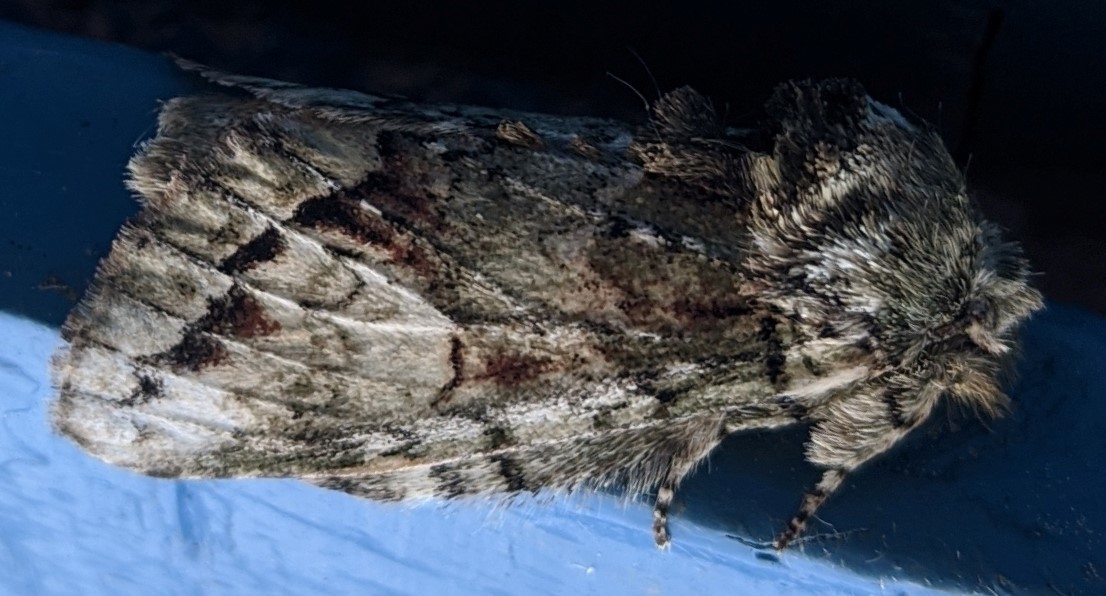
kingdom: Animalia
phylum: Arthropoda
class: Insecta
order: Lepidoptera
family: Notodontidae
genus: Heterocampa
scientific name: Heterocampa
